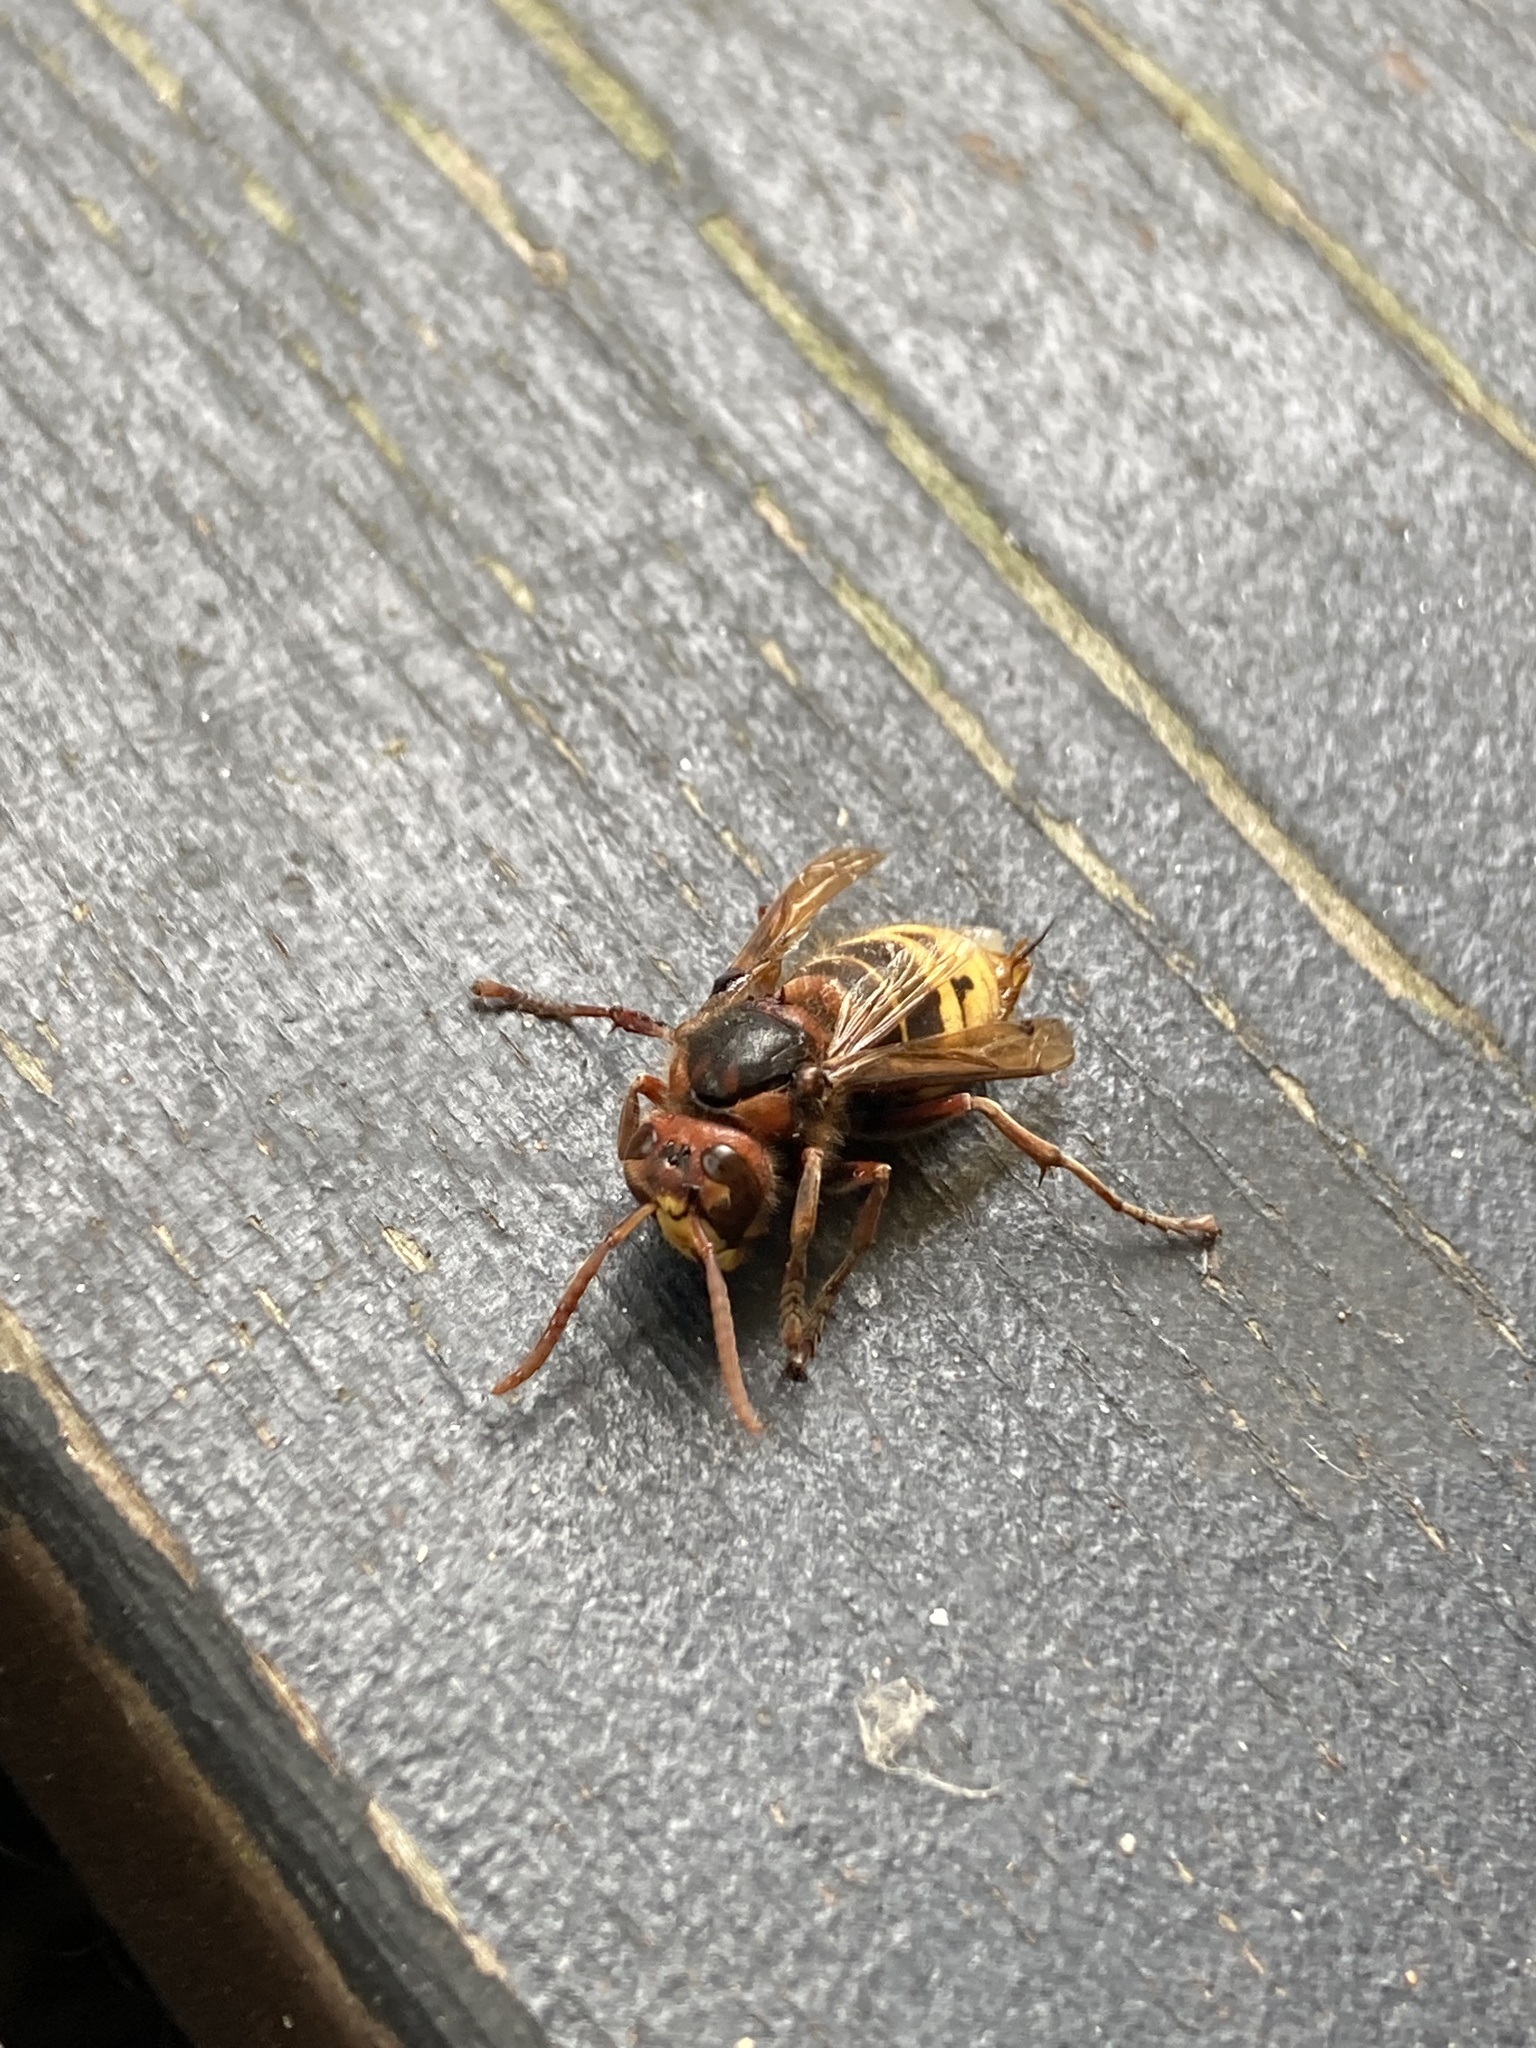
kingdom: Animalia
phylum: Arthropoda
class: Insecta
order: Hymenoptera
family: Vespidae
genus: Vespa
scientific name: Vespa crabro
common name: Hornet
